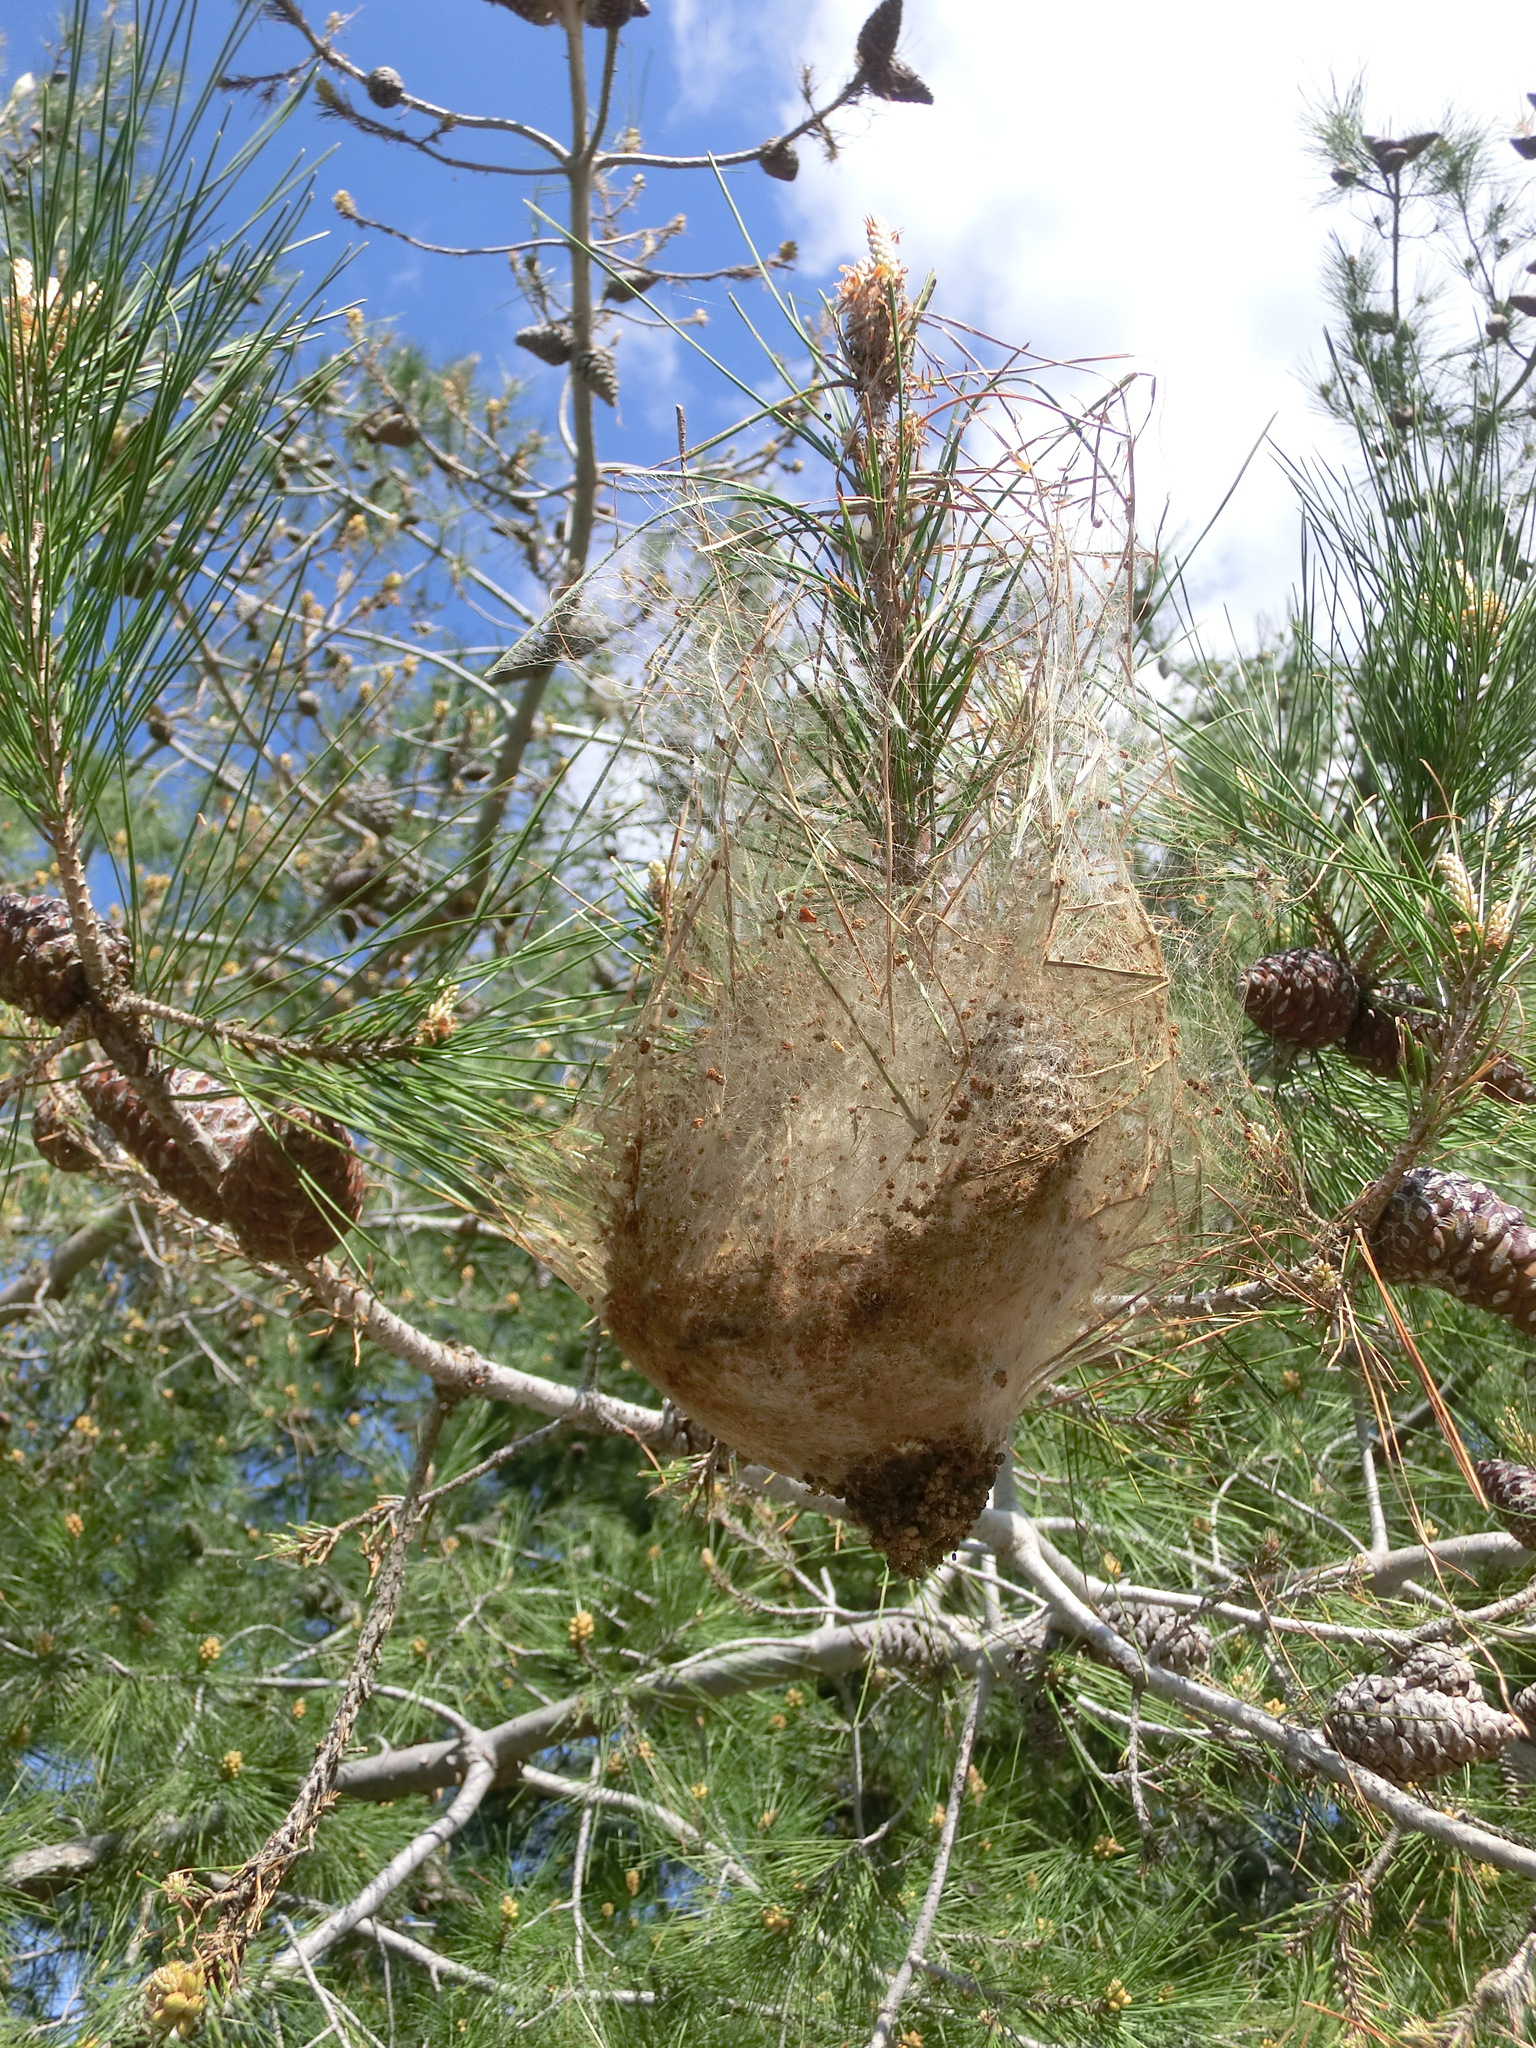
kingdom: Animalia
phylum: Arthropoda
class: Insecta
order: Lepidoptera
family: Notodontidae
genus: Thaumetopoea
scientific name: Thaumetopoea wilkinsoni
